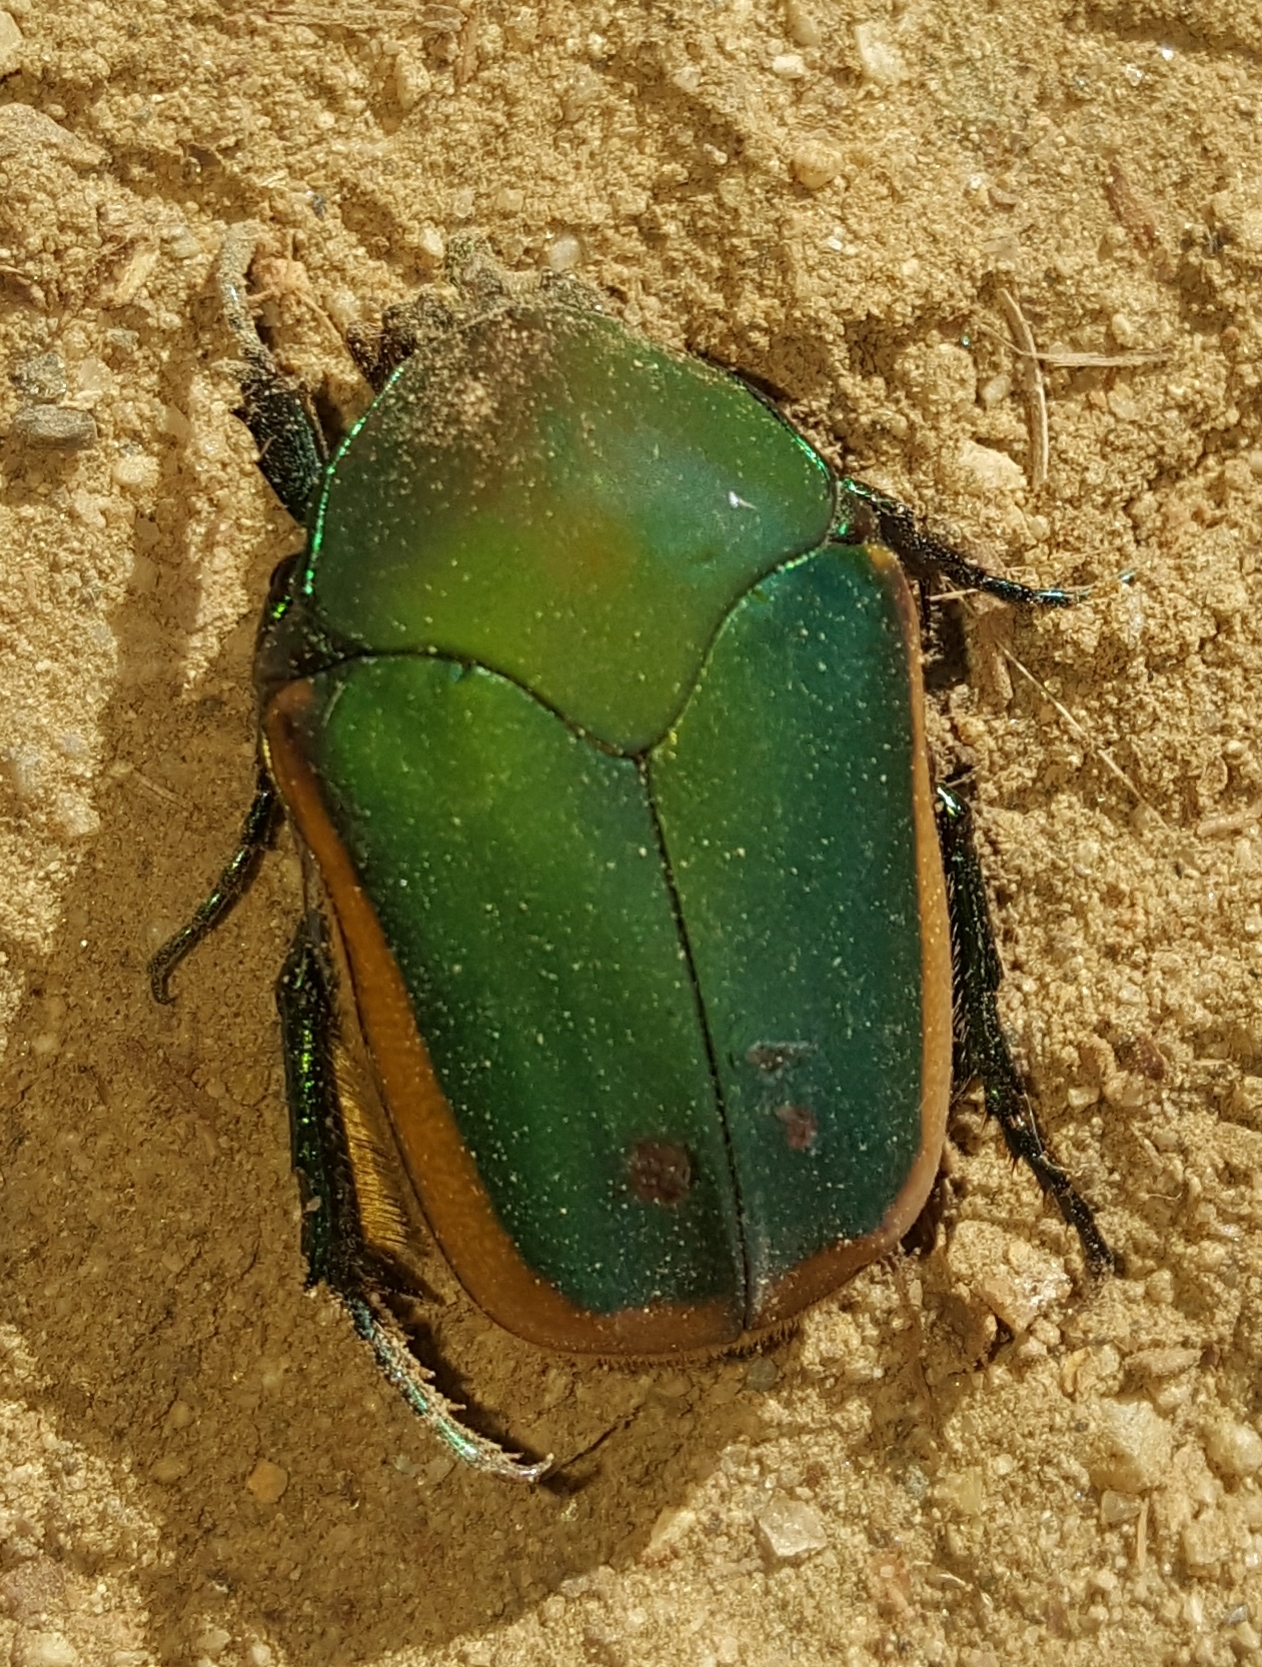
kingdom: Animalia
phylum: Arthropoda
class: Insecta
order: Coleoptera
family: Scarabaeidae
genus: Cotinis
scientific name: Cotinis mutabilis
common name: Figeater beetle
